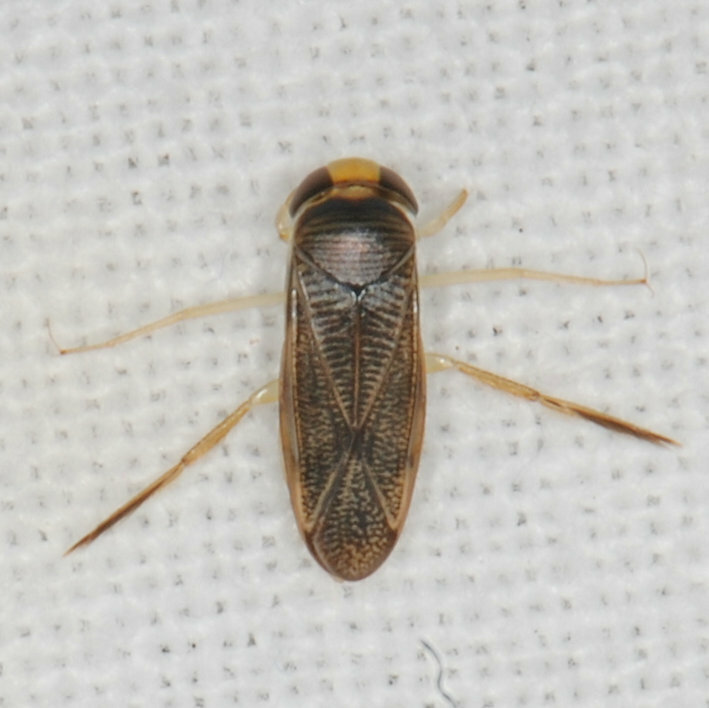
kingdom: Animalia
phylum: Arthropoda
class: Insecta
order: Hemiptera
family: Corixidae
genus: Sigara
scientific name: Sigara
